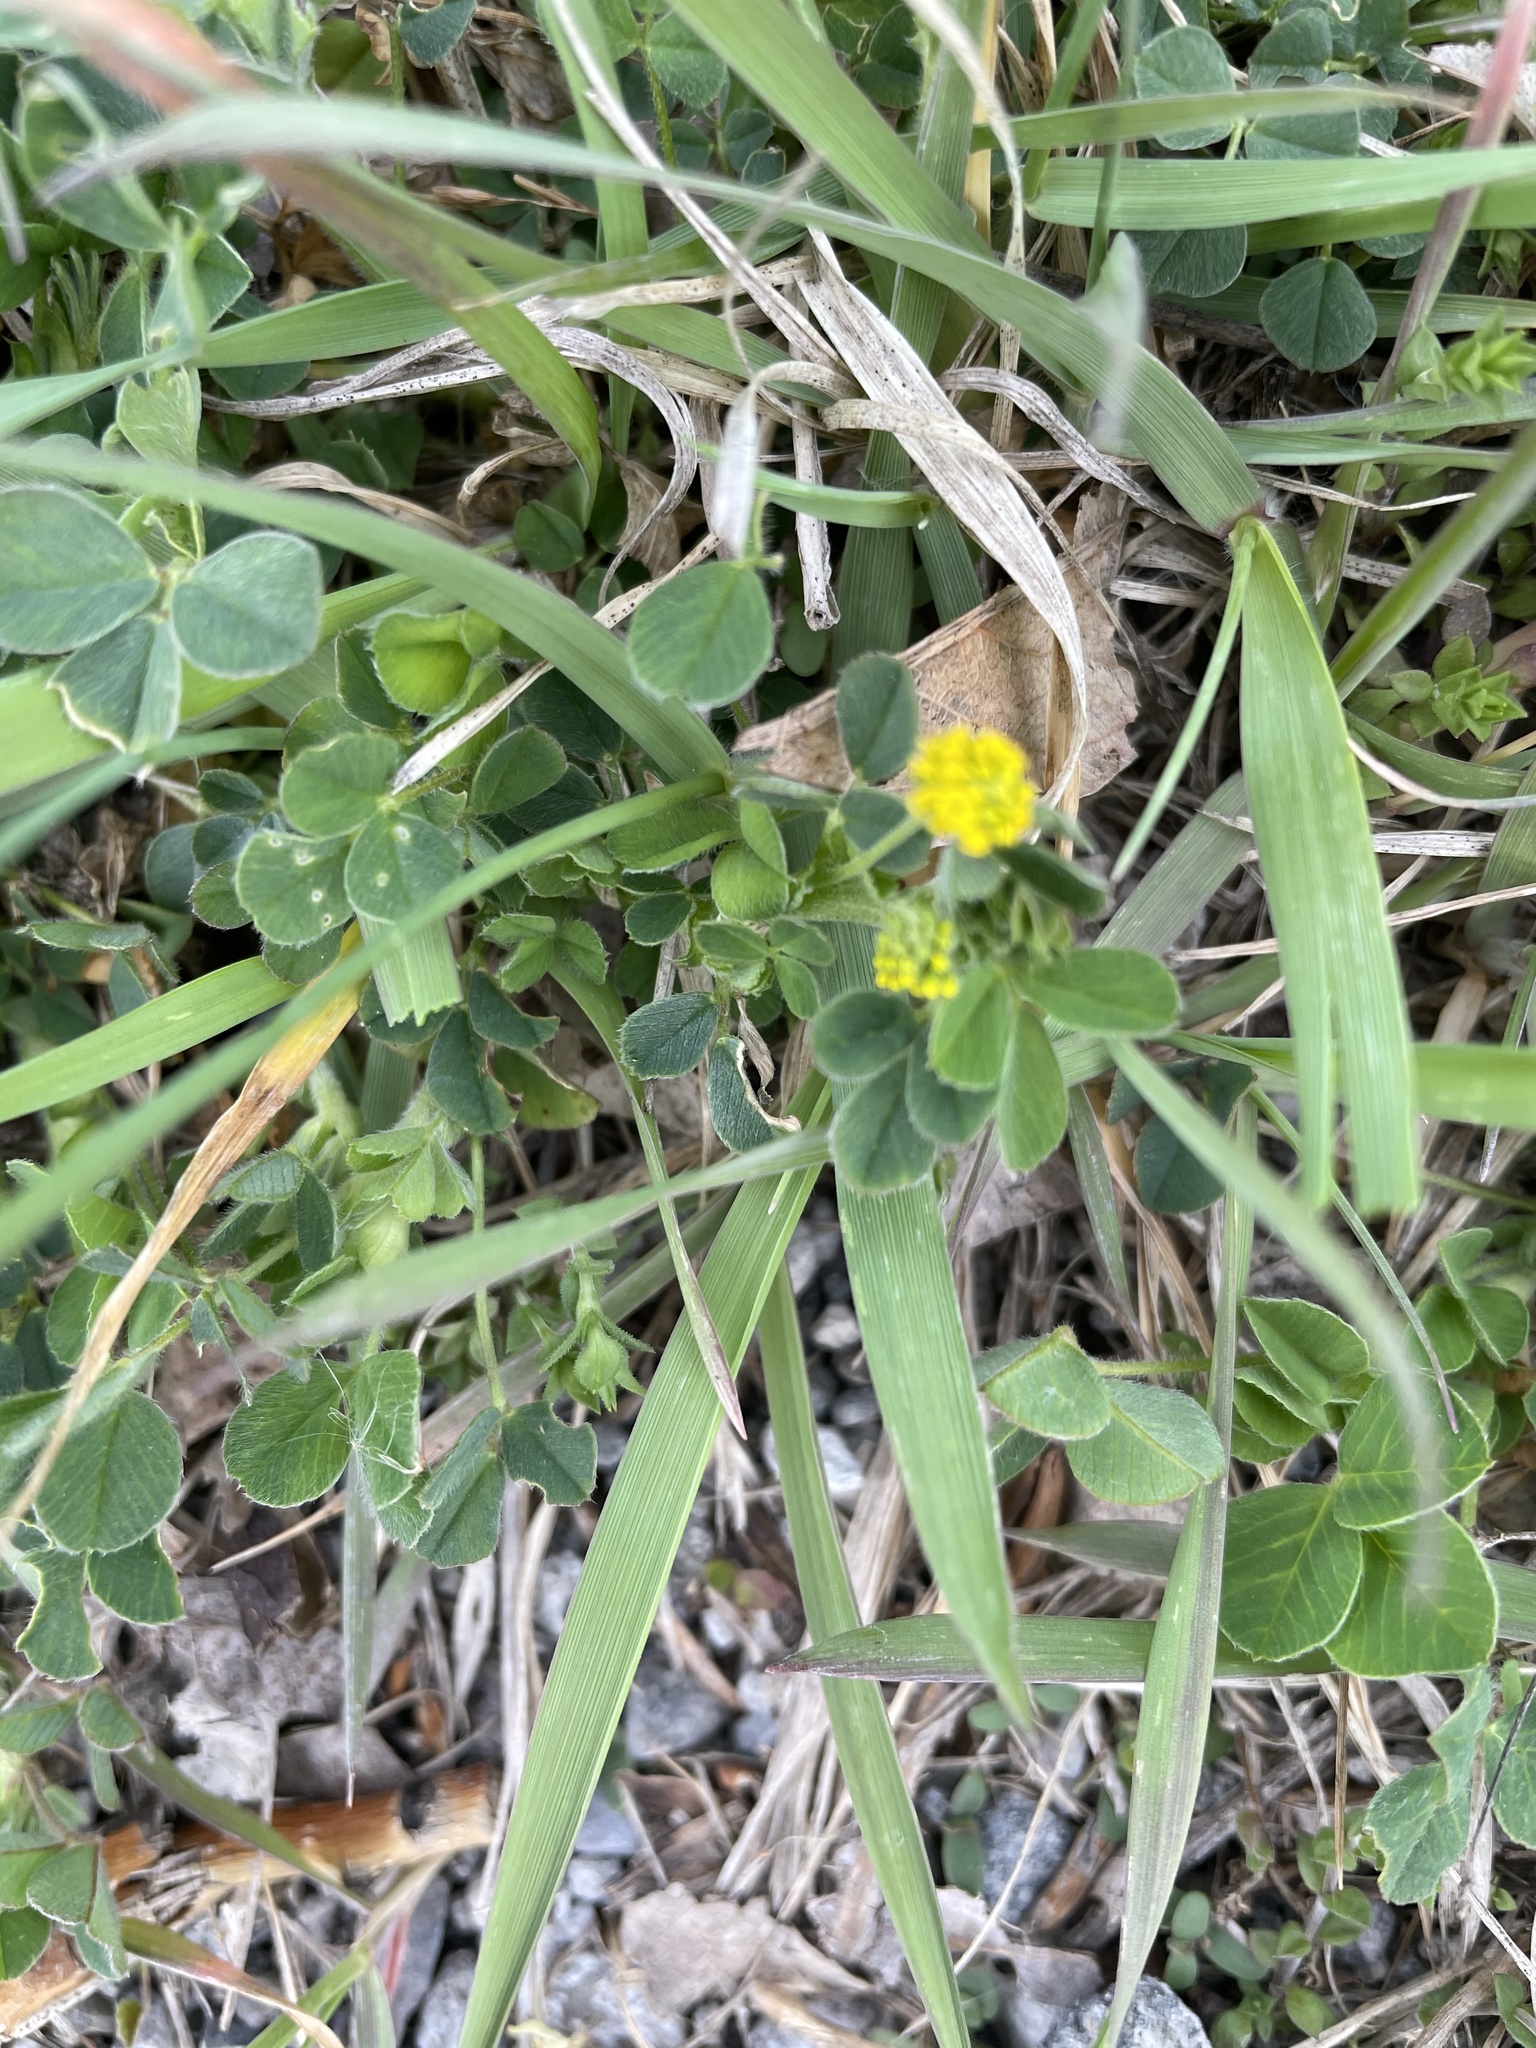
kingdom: Plantae
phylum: Tracheophyta
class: Magnoliopsida
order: Fabales
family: Fabaceae
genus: Medicago
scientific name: Medicago lupulina
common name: Black medick
